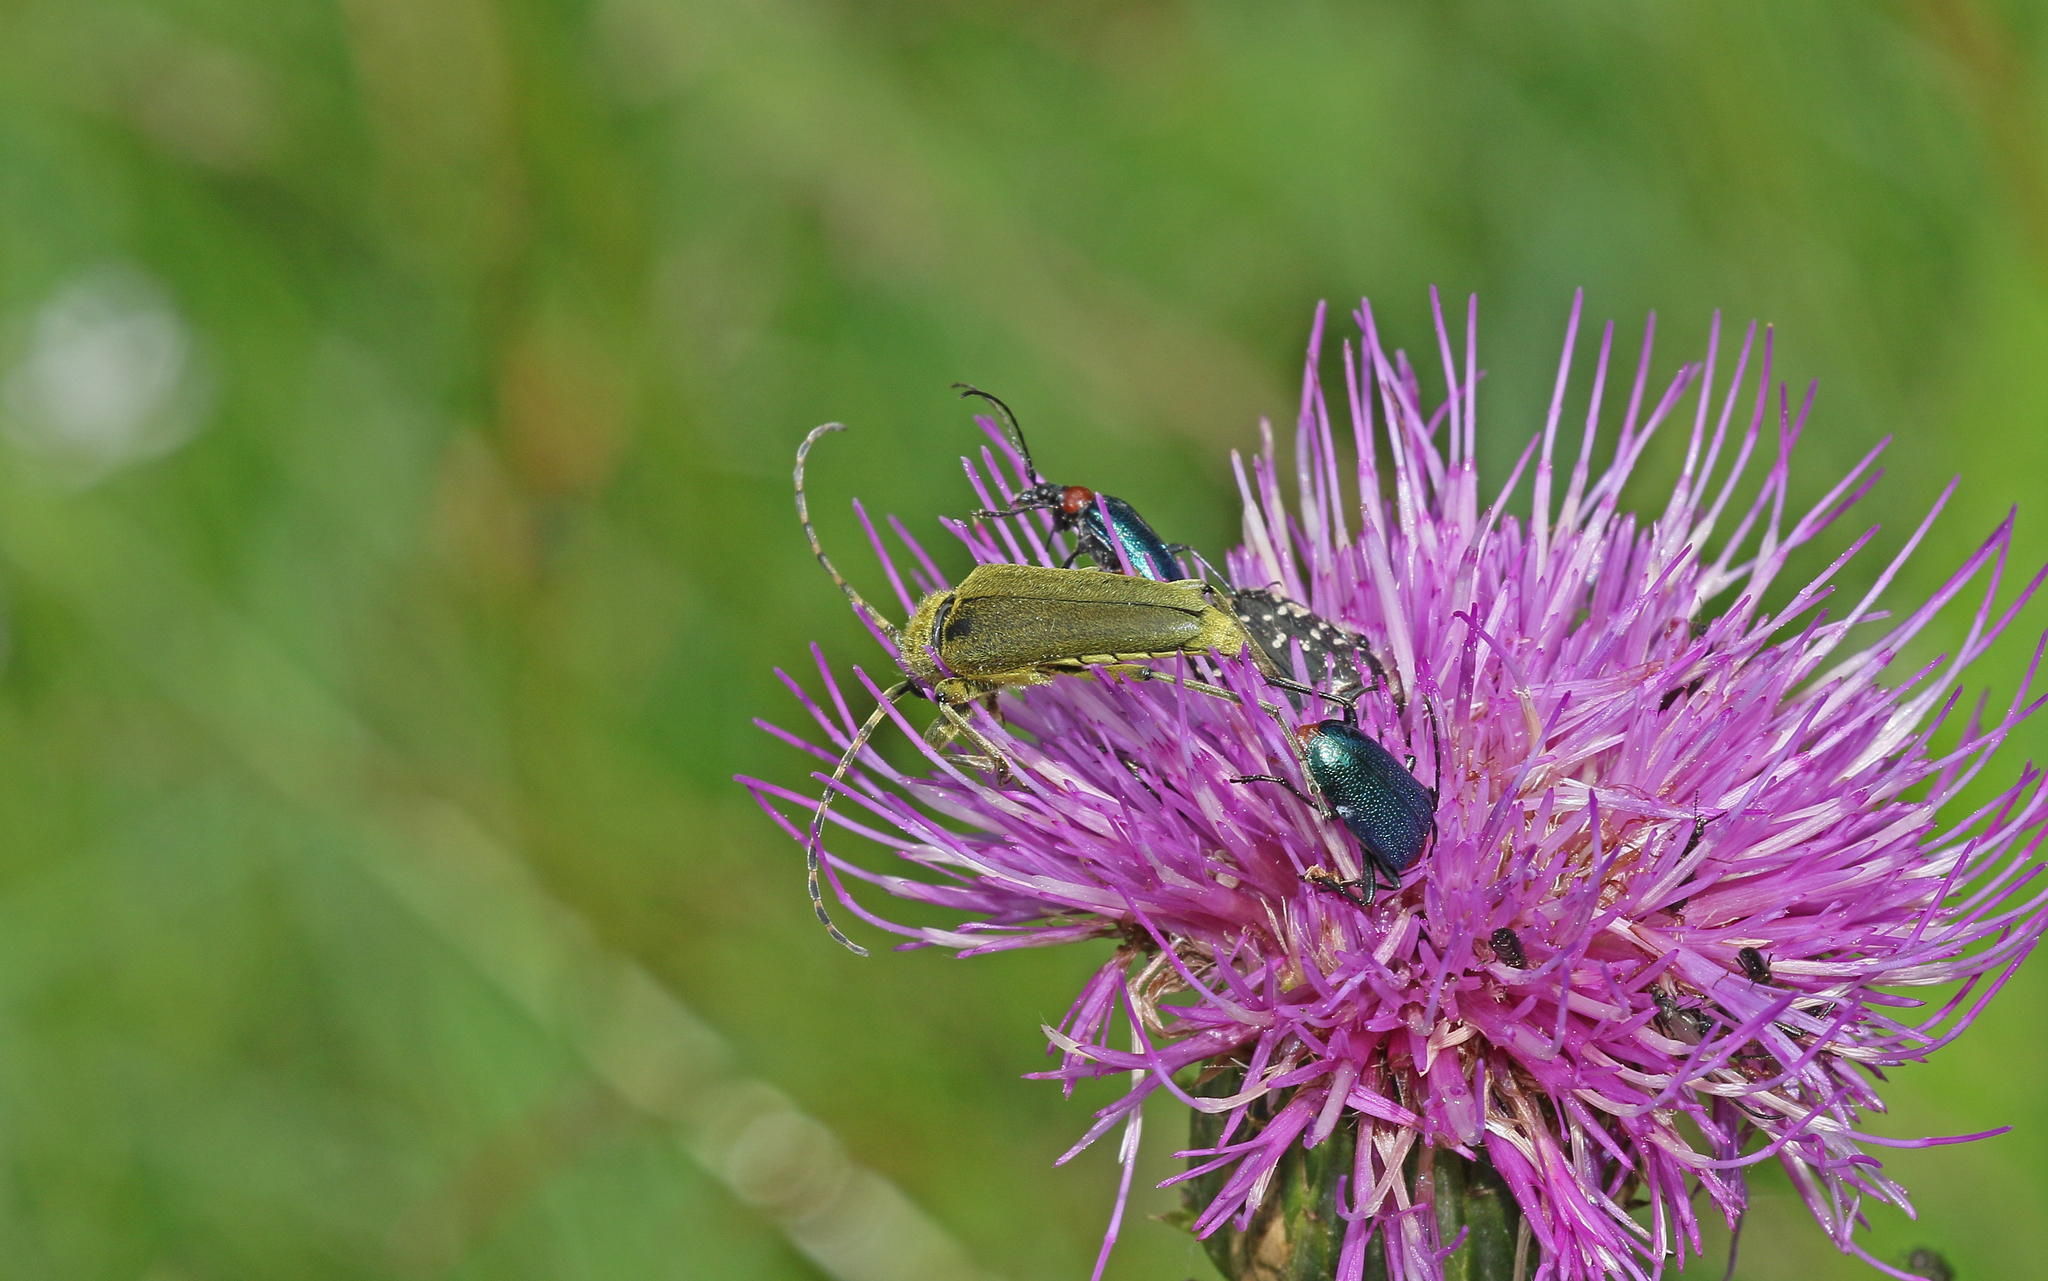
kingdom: Animalia
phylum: Arthropoda
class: Insecta
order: Coleoptera
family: Cerambycidae
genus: Lepturobosca
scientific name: Lepturobosca virens
